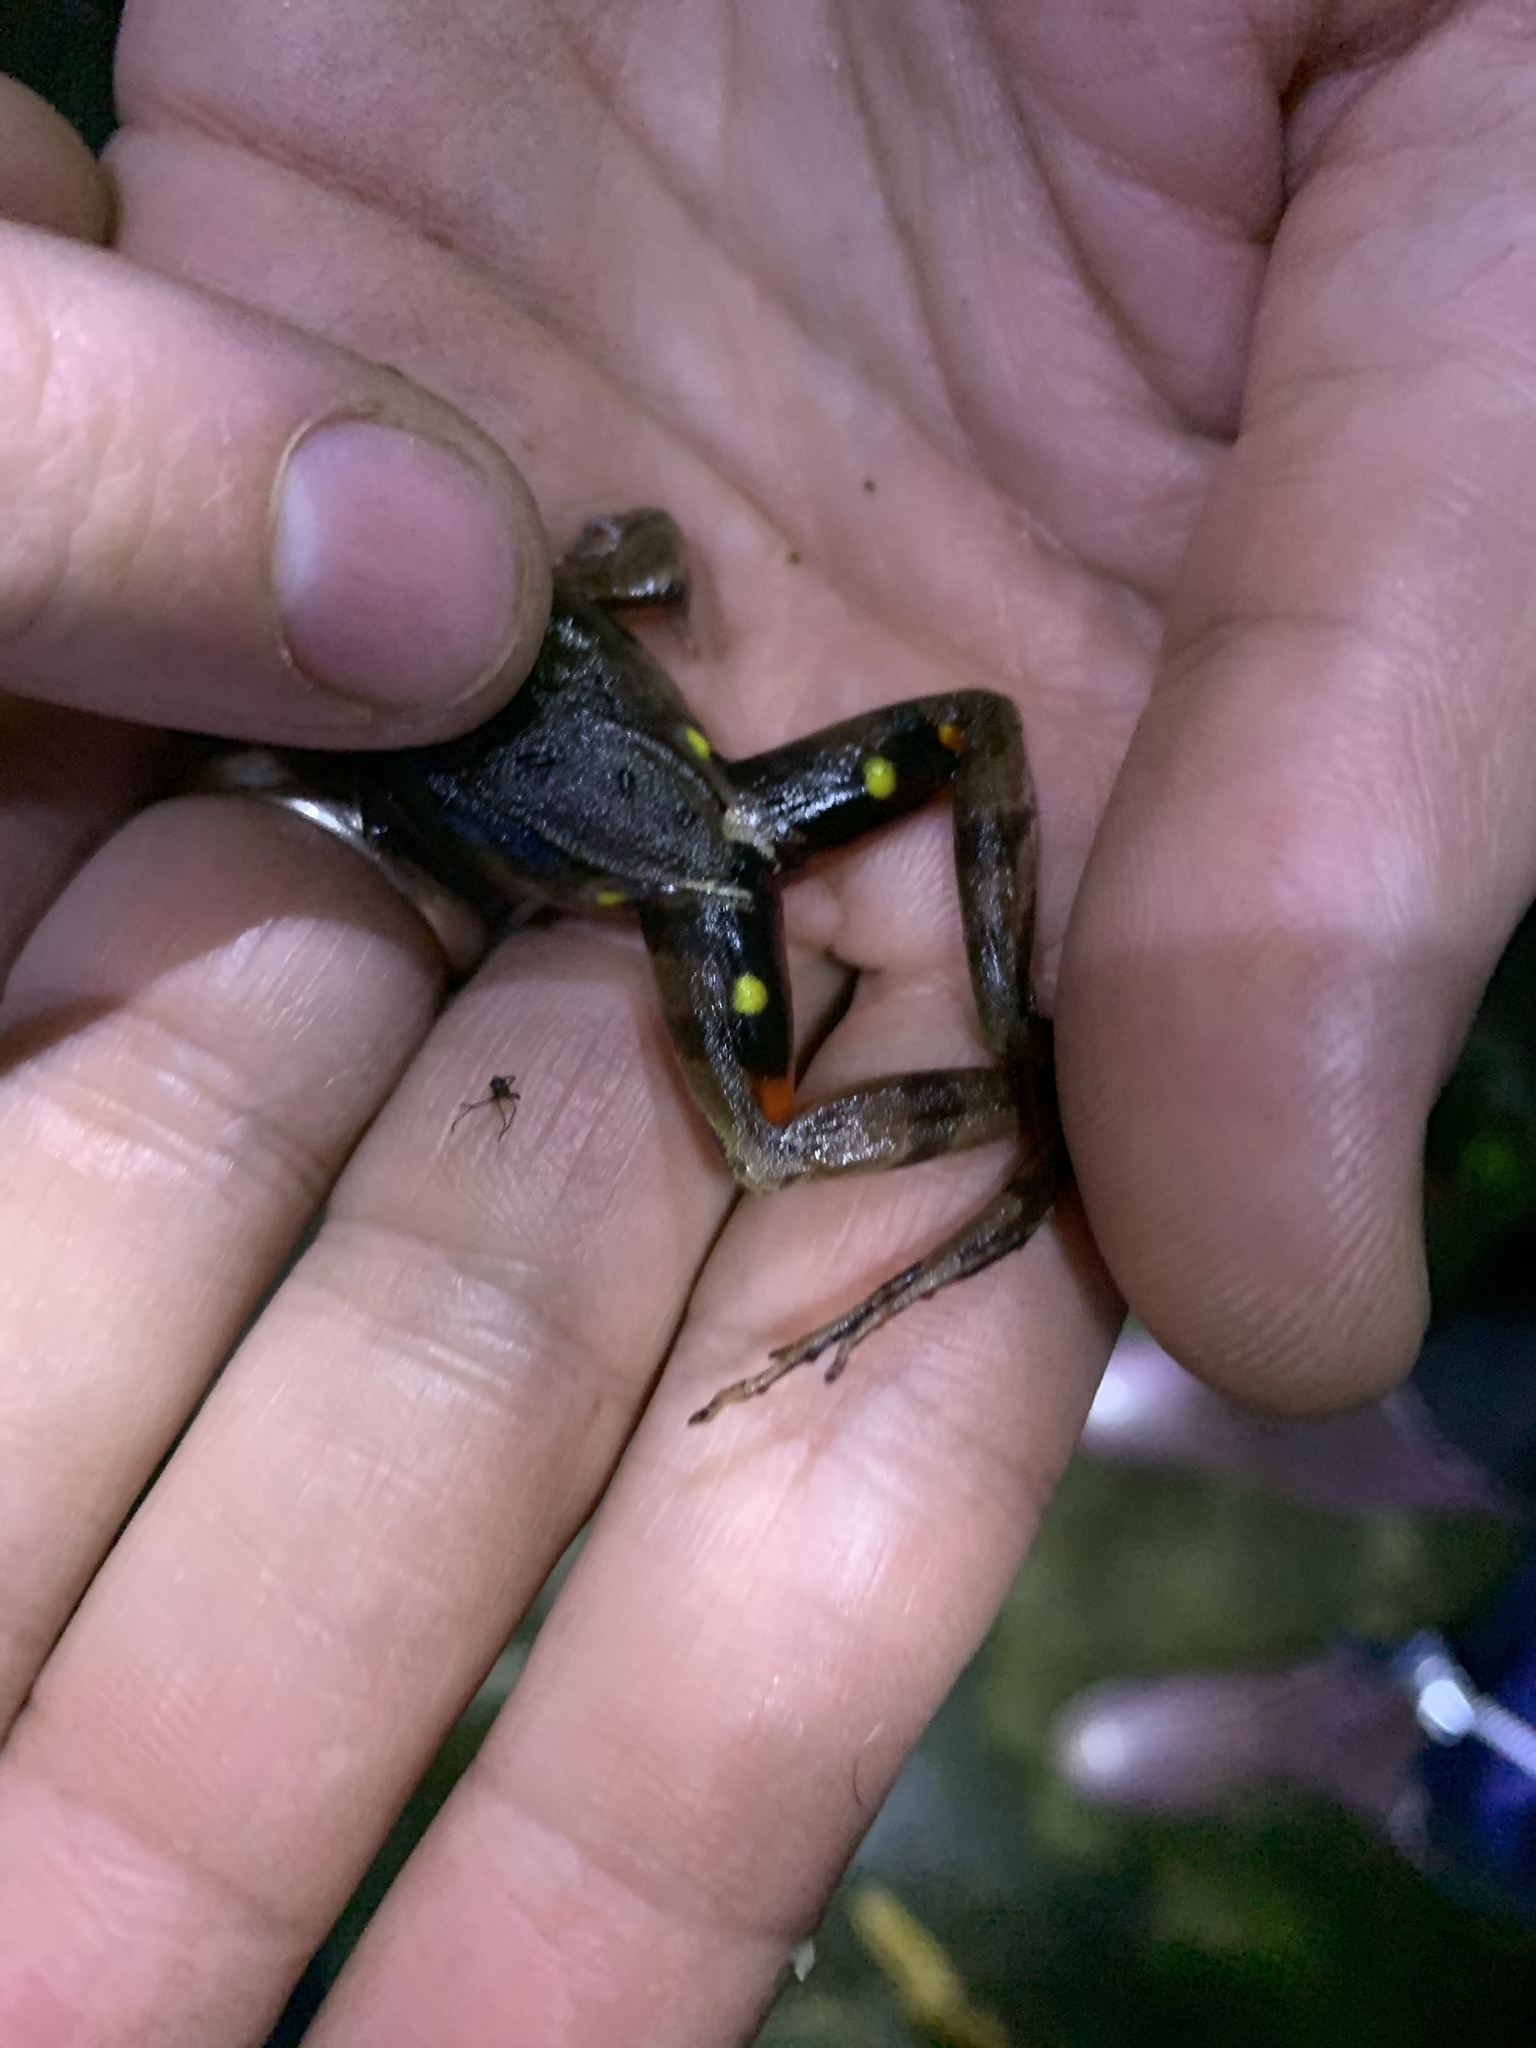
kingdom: Animalia
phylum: Chordata
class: Amphibia
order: Anura
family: Ranidae
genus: Lithobates
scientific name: Lithobates warszewitschii
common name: Warszewitsch's frog
